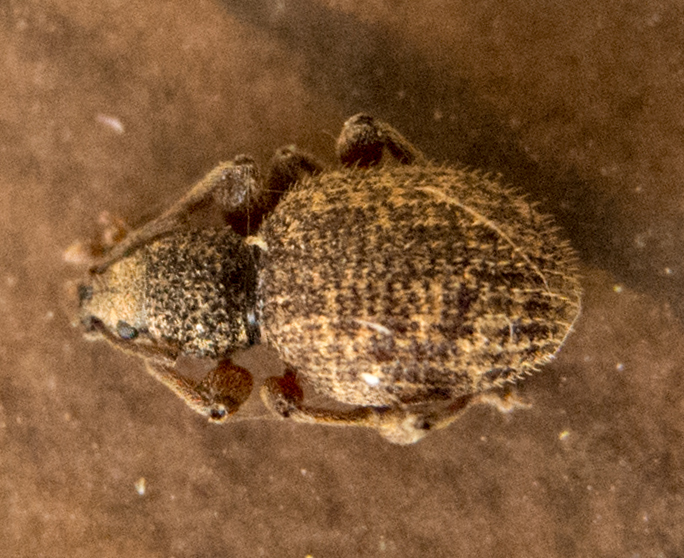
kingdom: Animalia
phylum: Arthropoda
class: Insecta
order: Coleoptera
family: Curculionidae
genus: Otiorhynchus
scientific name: Otiorhynchus crataegi
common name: Privet weevil
